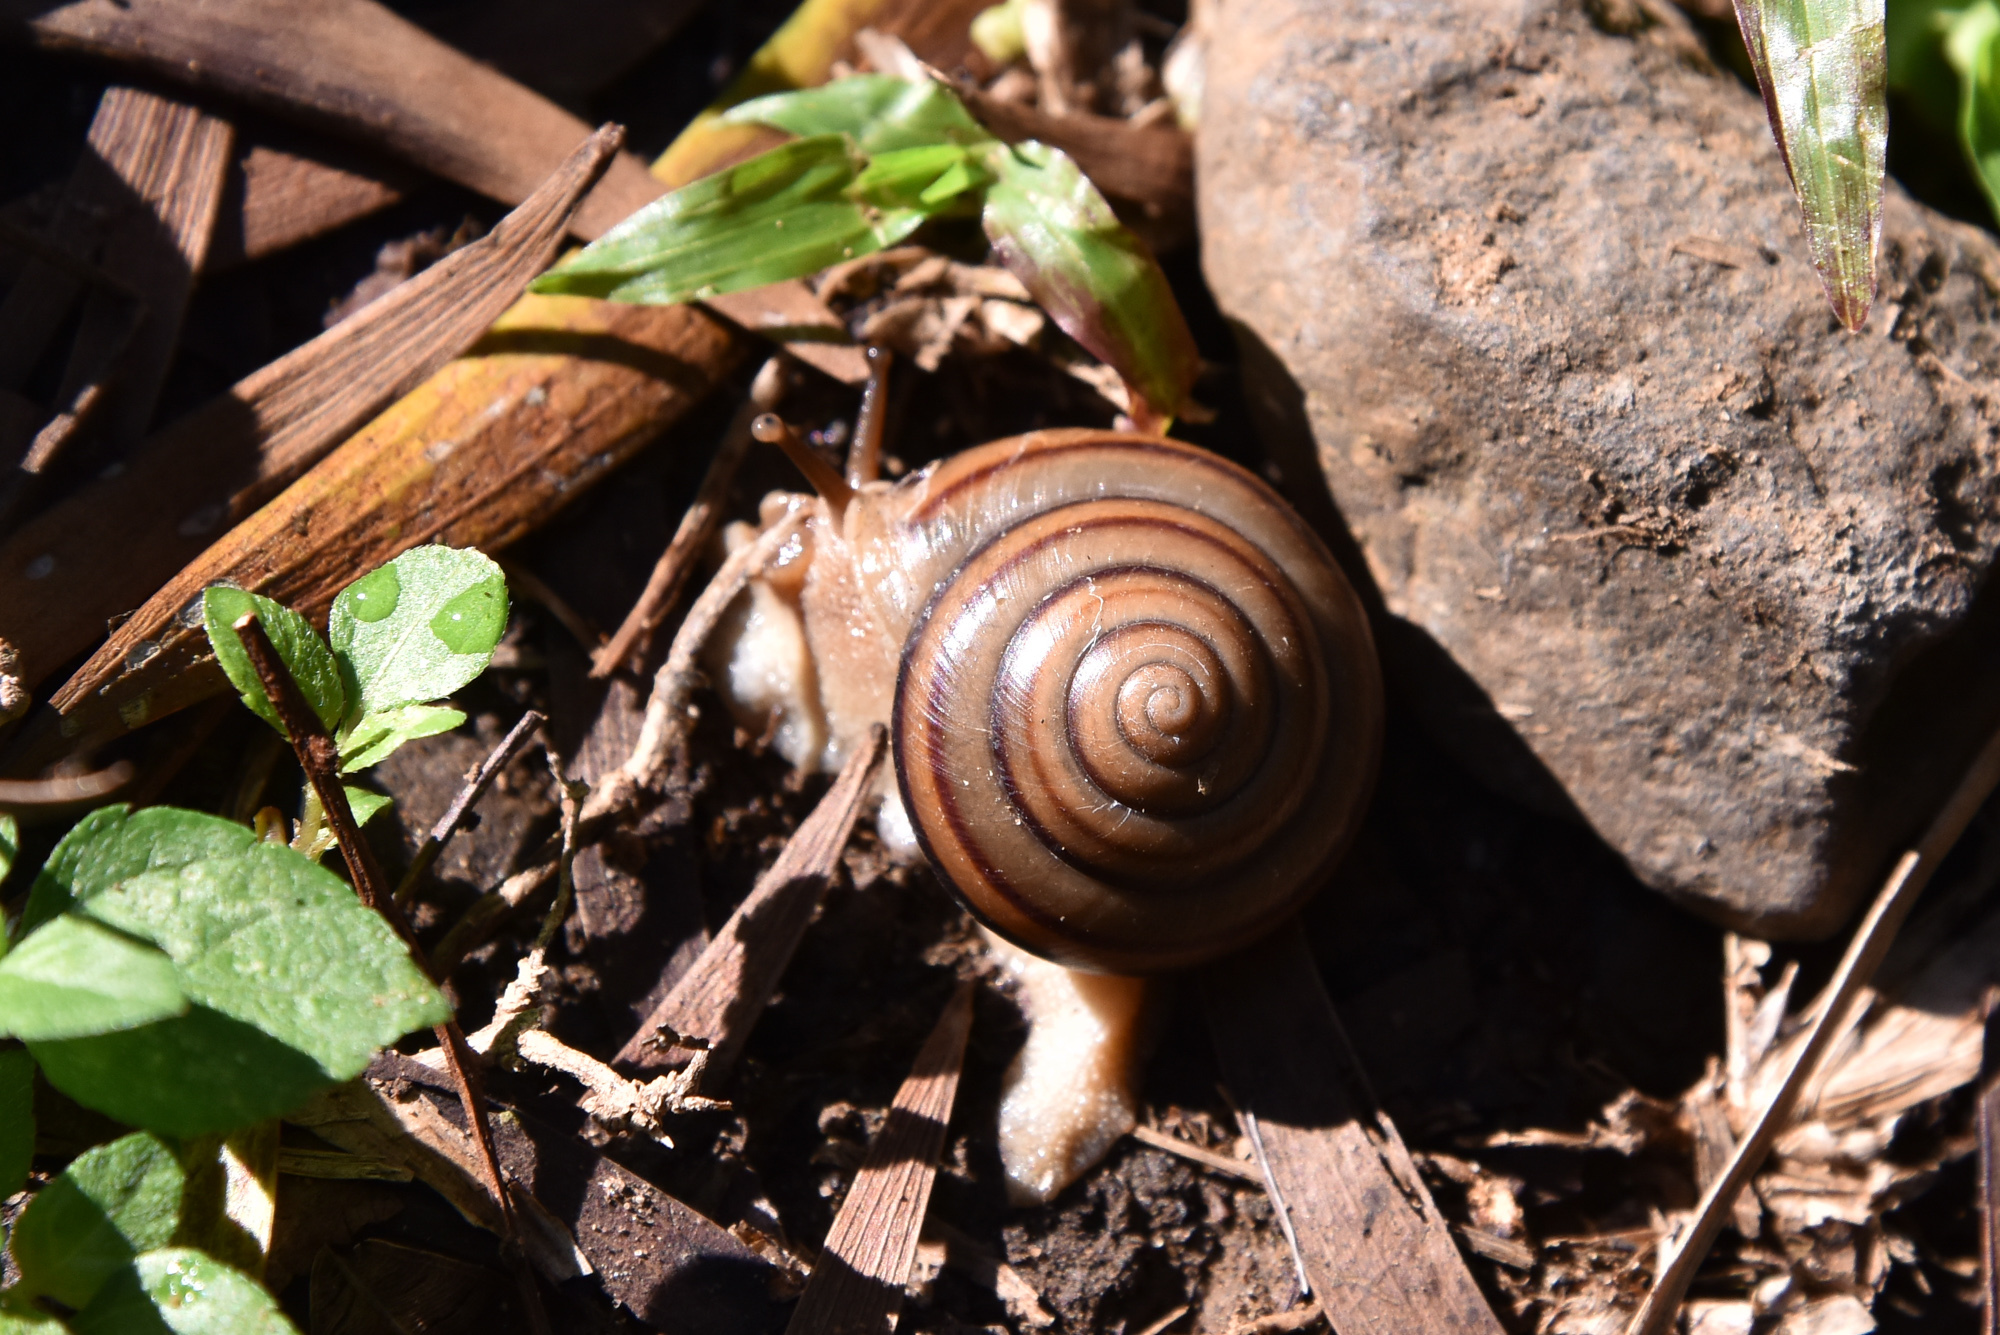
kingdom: Animalia
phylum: Mollusca
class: Gastropoda
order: Stylommatophora
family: Camaenidae
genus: Pancala
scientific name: Pancala batanica
